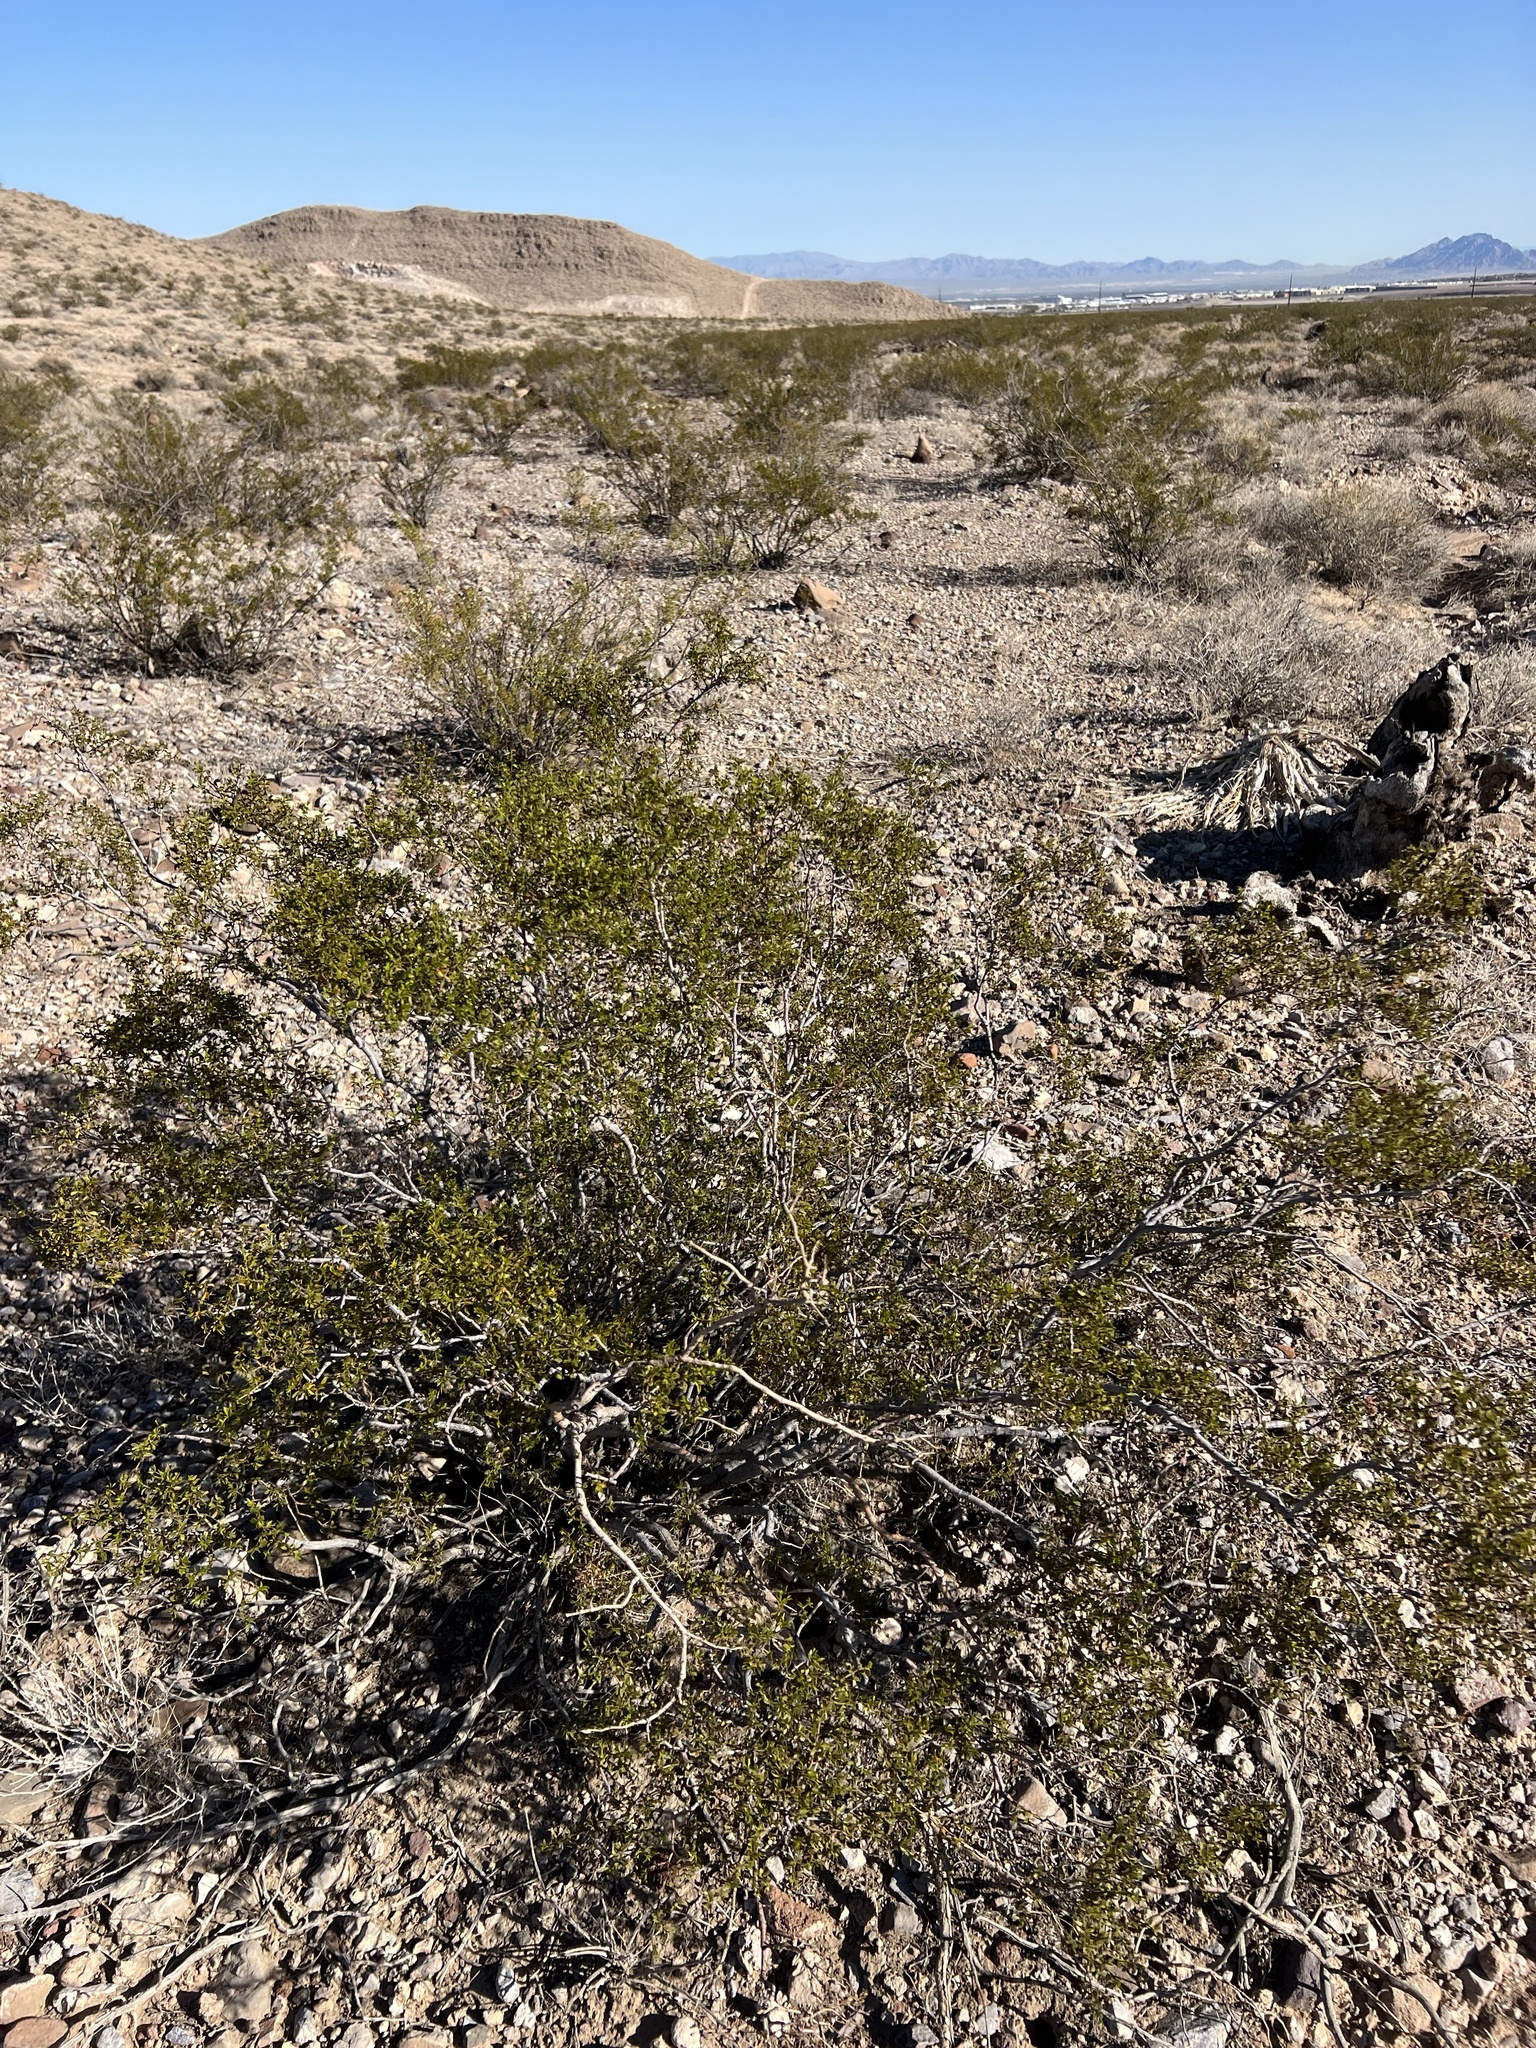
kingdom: Plantae
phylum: Tracheophyta
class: Magnoliopsida
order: Zygophyllales
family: Zygophyllaceae
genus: Larrea
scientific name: Larrea tridentata
